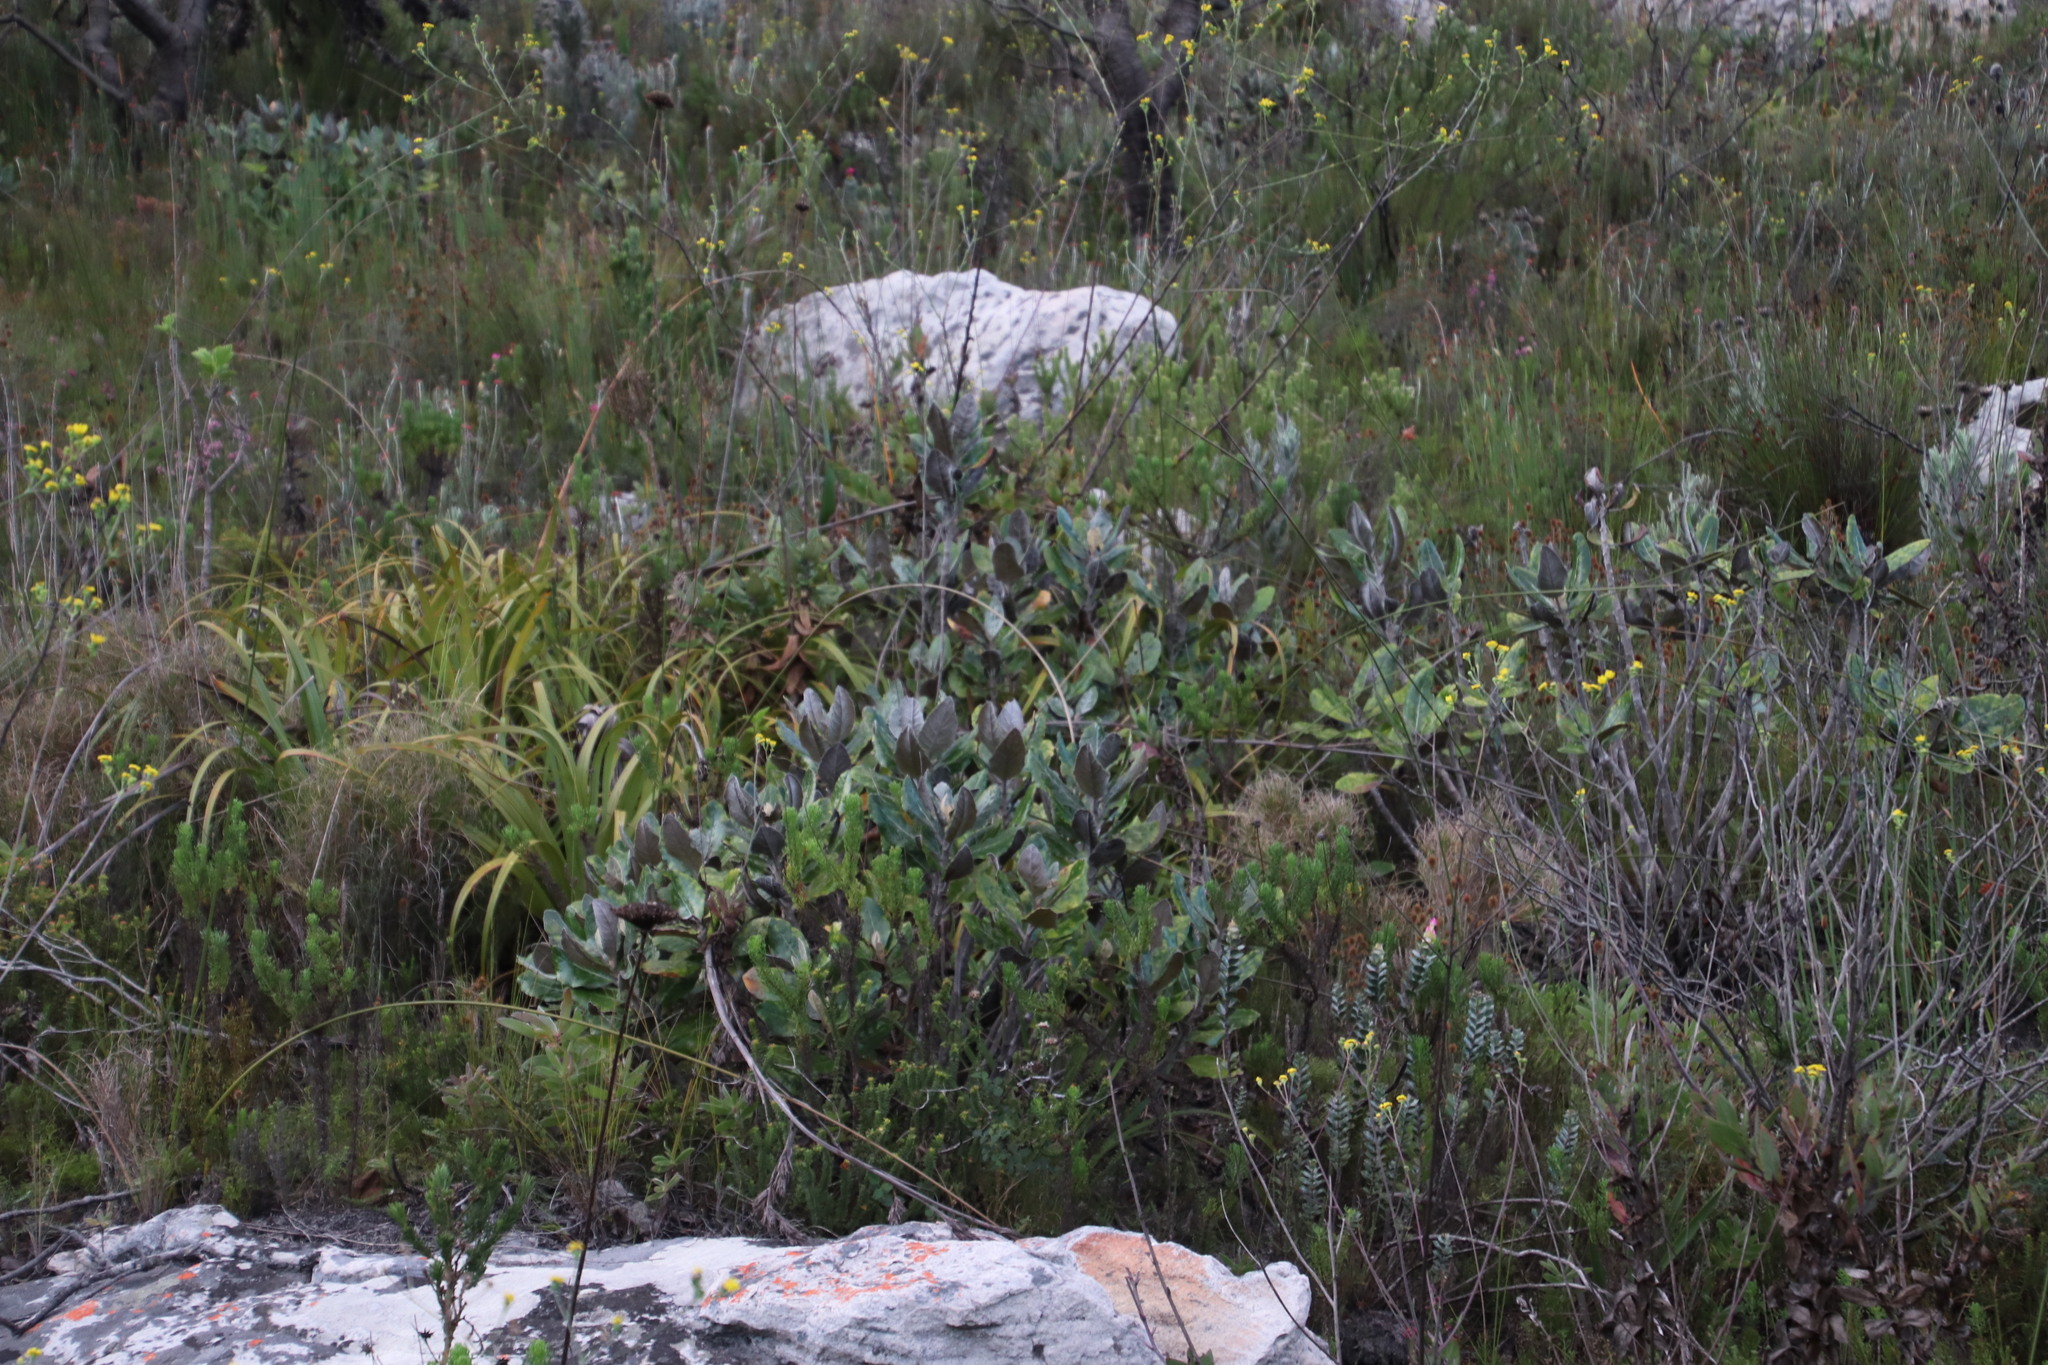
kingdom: Plantae
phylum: Tracheophyta
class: Magnoliopsida
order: Apiales
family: Apiaceae
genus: Hermas
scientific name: Hermas villosa
